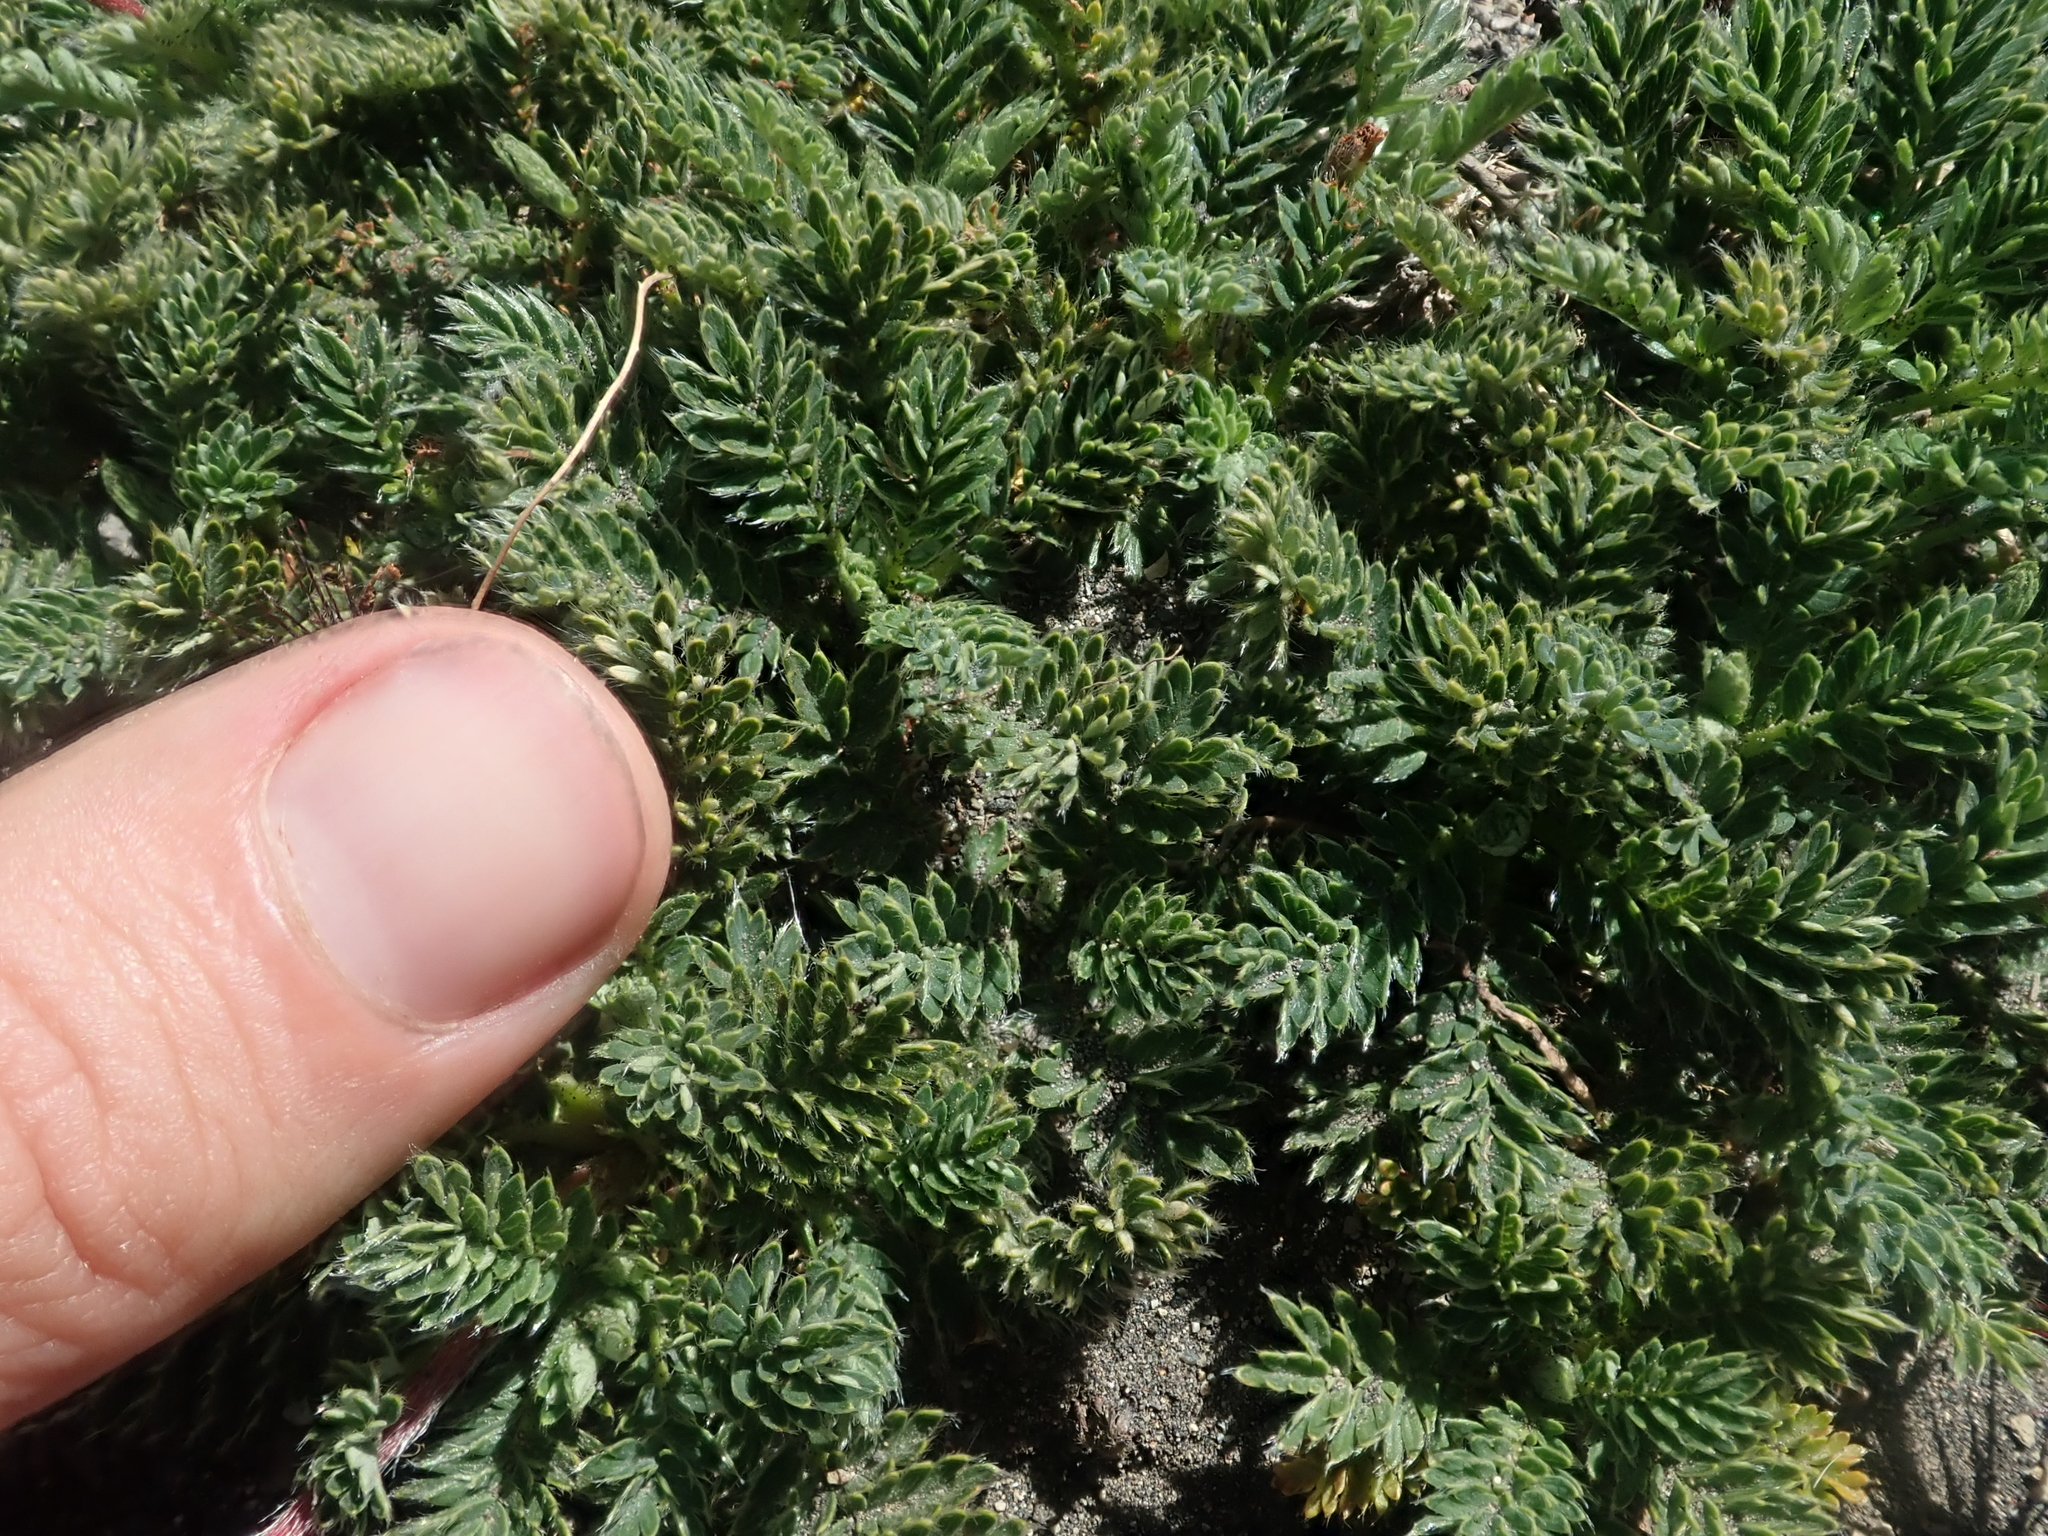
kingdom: Plantae
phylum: Tracheophyta
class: Magnoliopsida
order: Rosales
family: Rosaceae
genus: Acaena
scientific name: Acaena leptacantha
